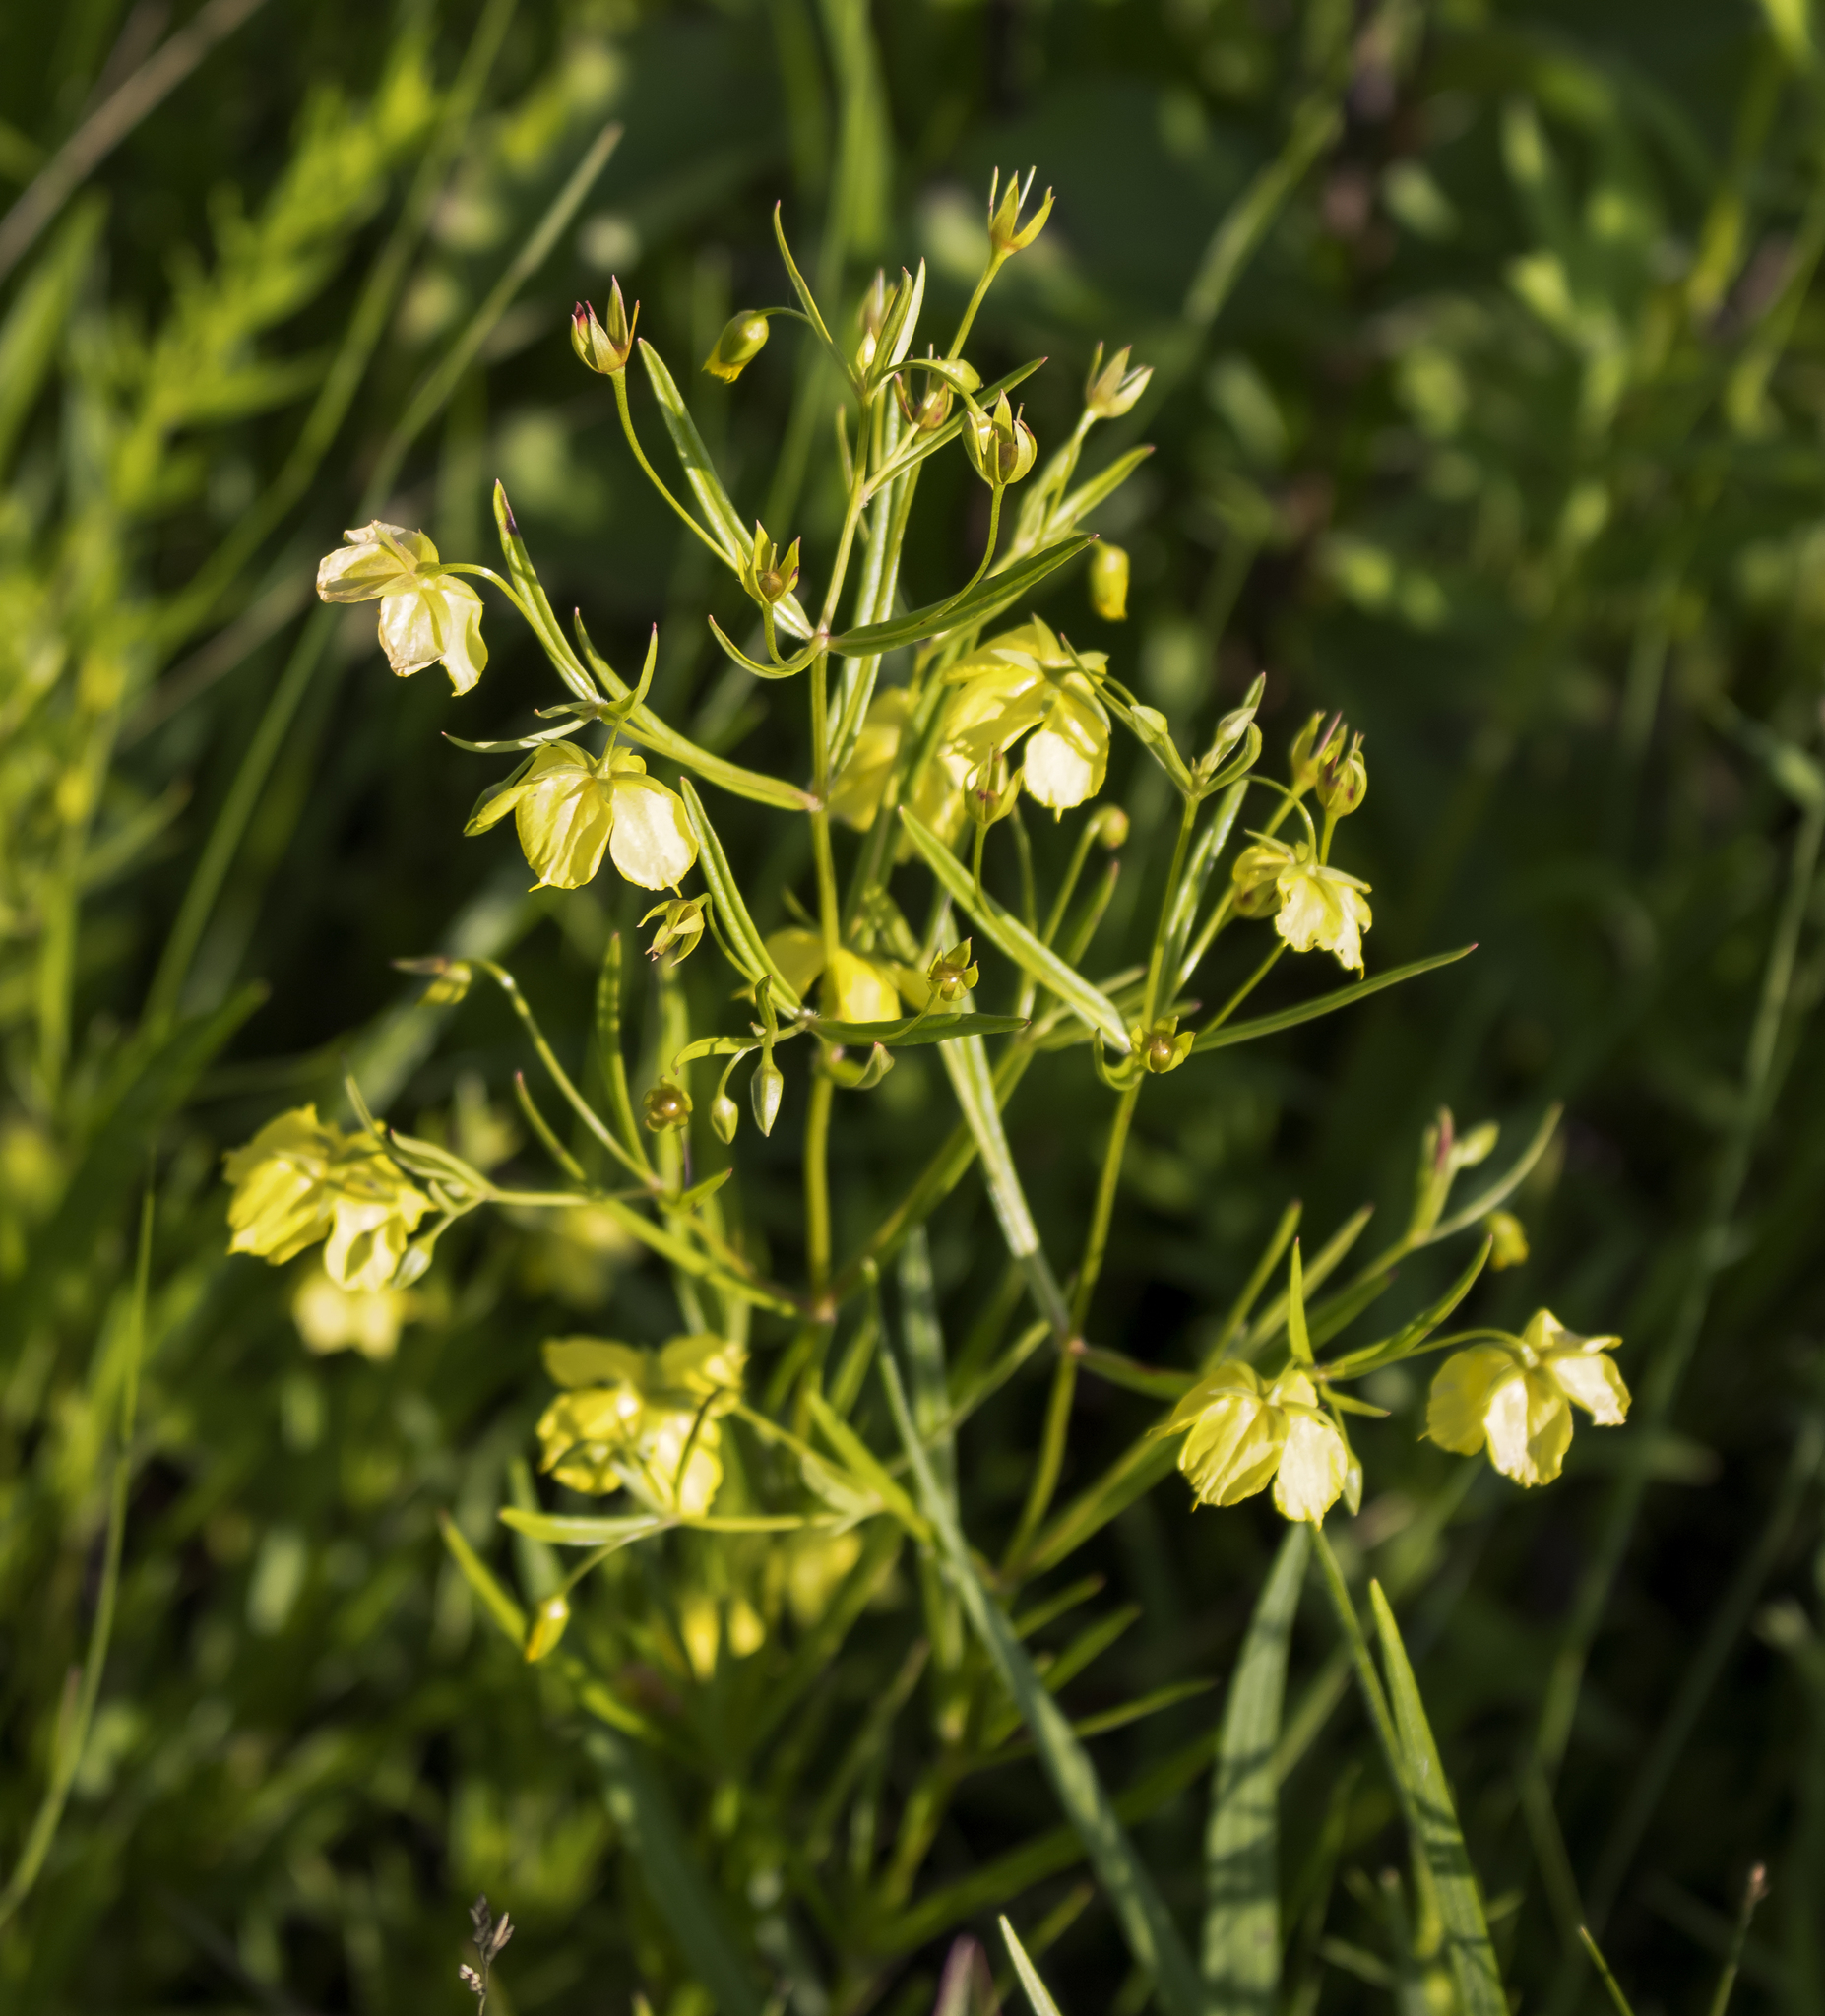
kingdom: Plantae
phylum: Tracheophyta
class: Magnoliopsida
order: Ericales
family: Primulaceae
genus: Lysimachia
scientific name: Lysimachia quadriflora
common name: Four-flowered loosestrife
